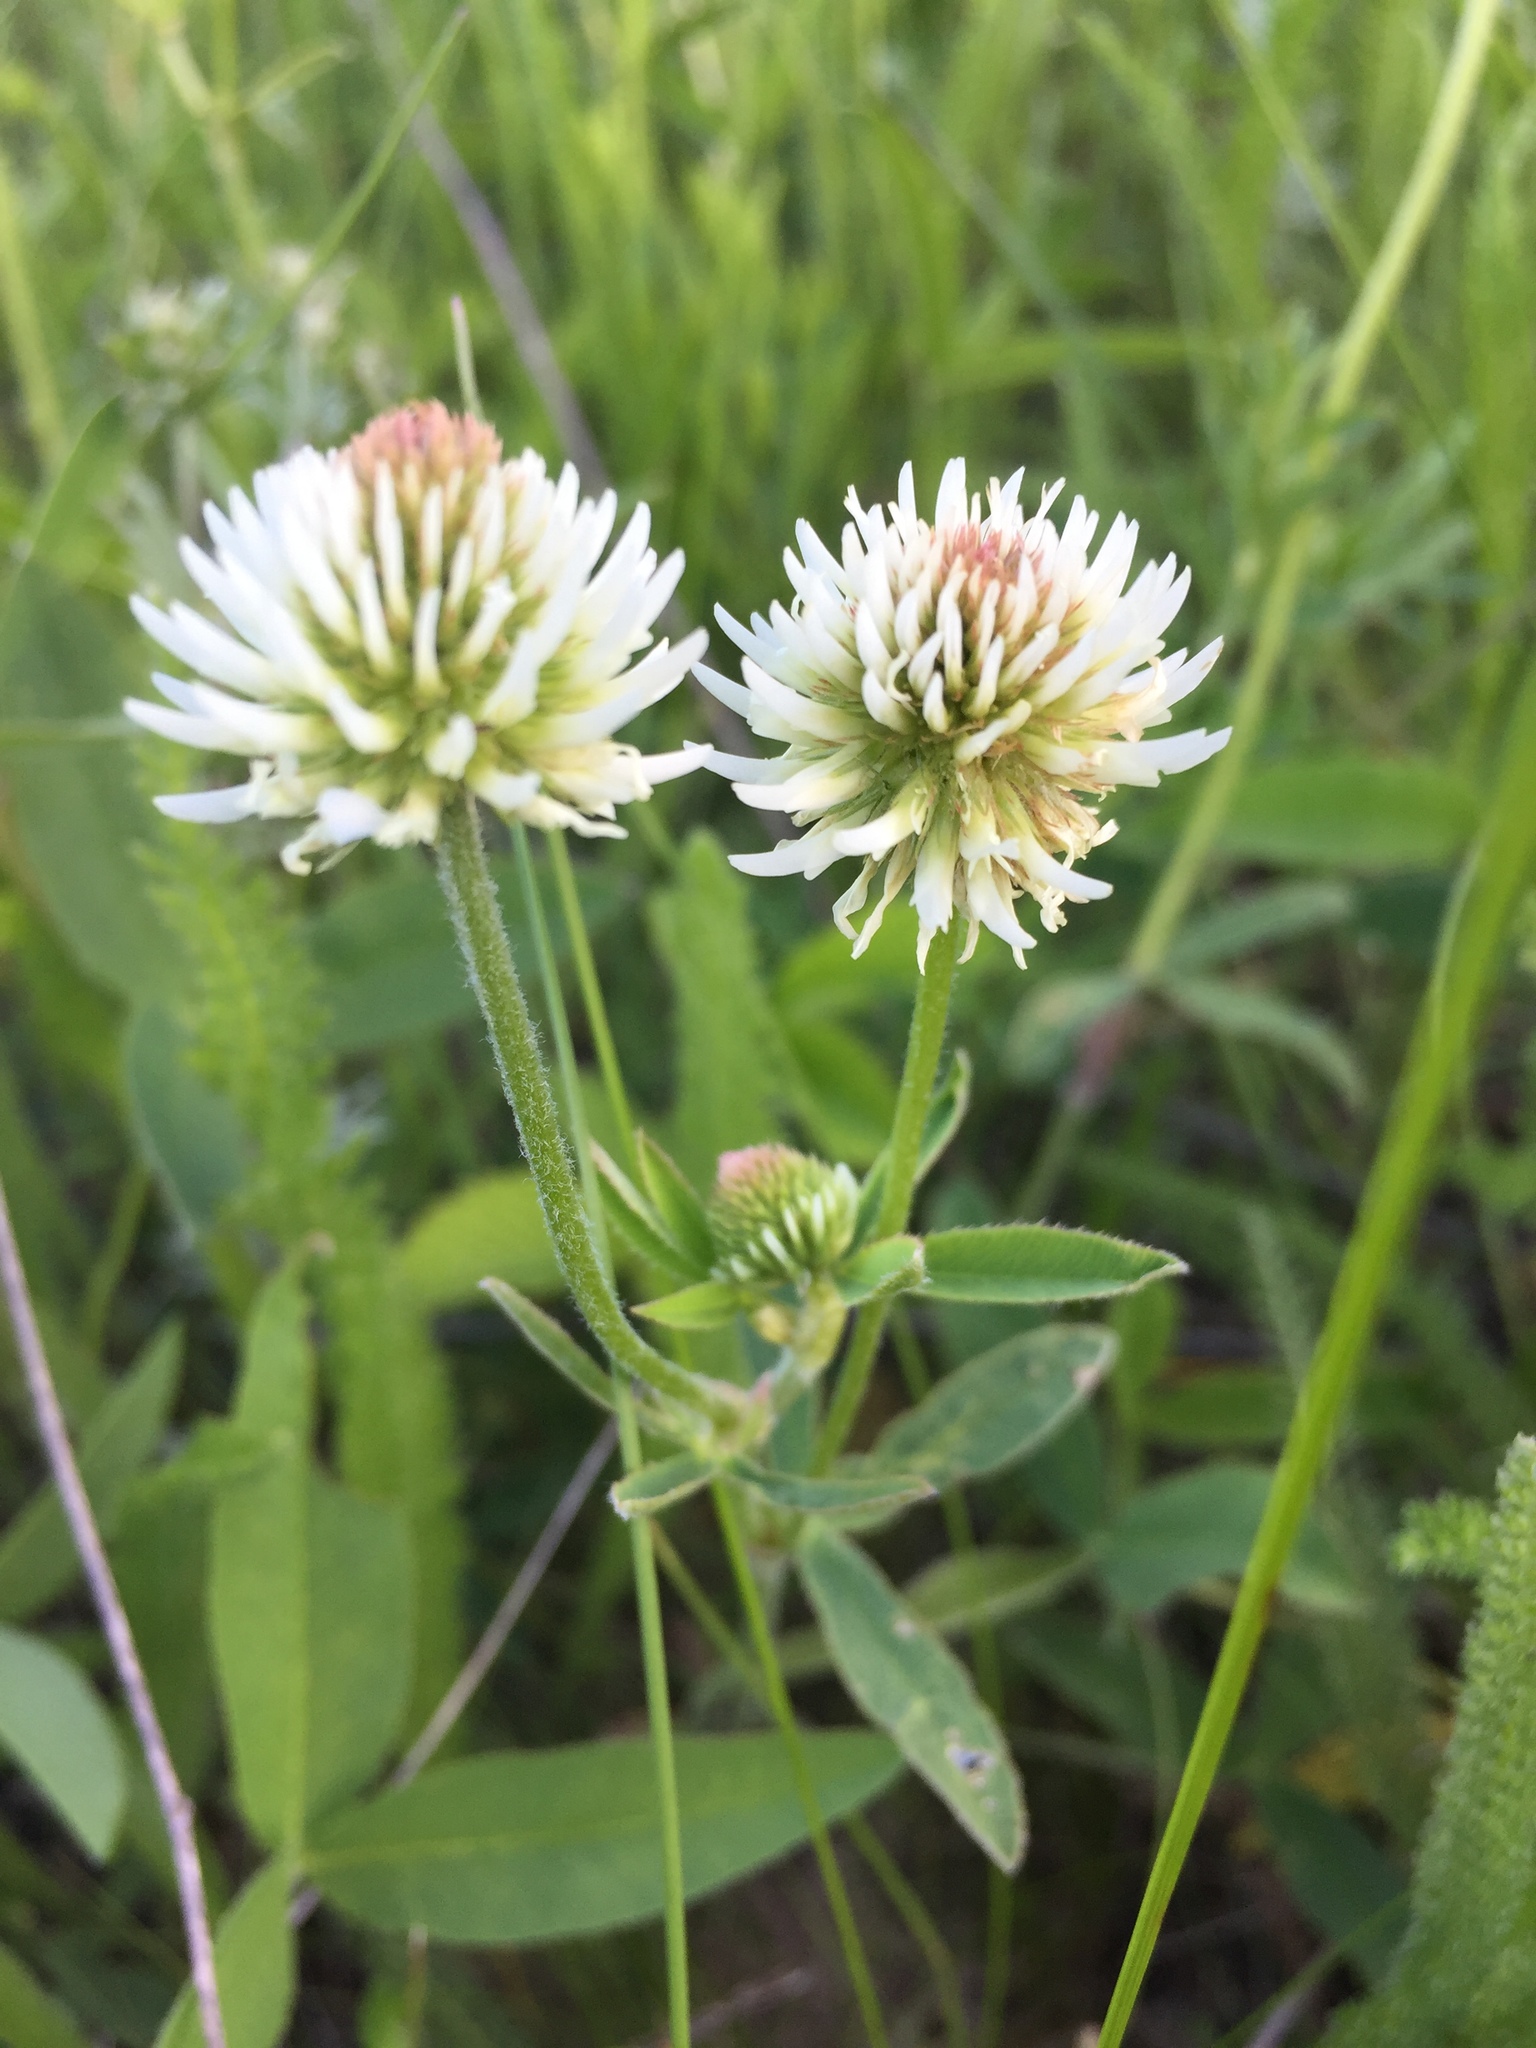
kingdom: Plantae
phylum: Tracheophyta
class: Magnoliopsida
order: Fabales
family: Fabaceae
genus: Trifolium
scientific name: Trifolium montanum
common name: Mountain clover
